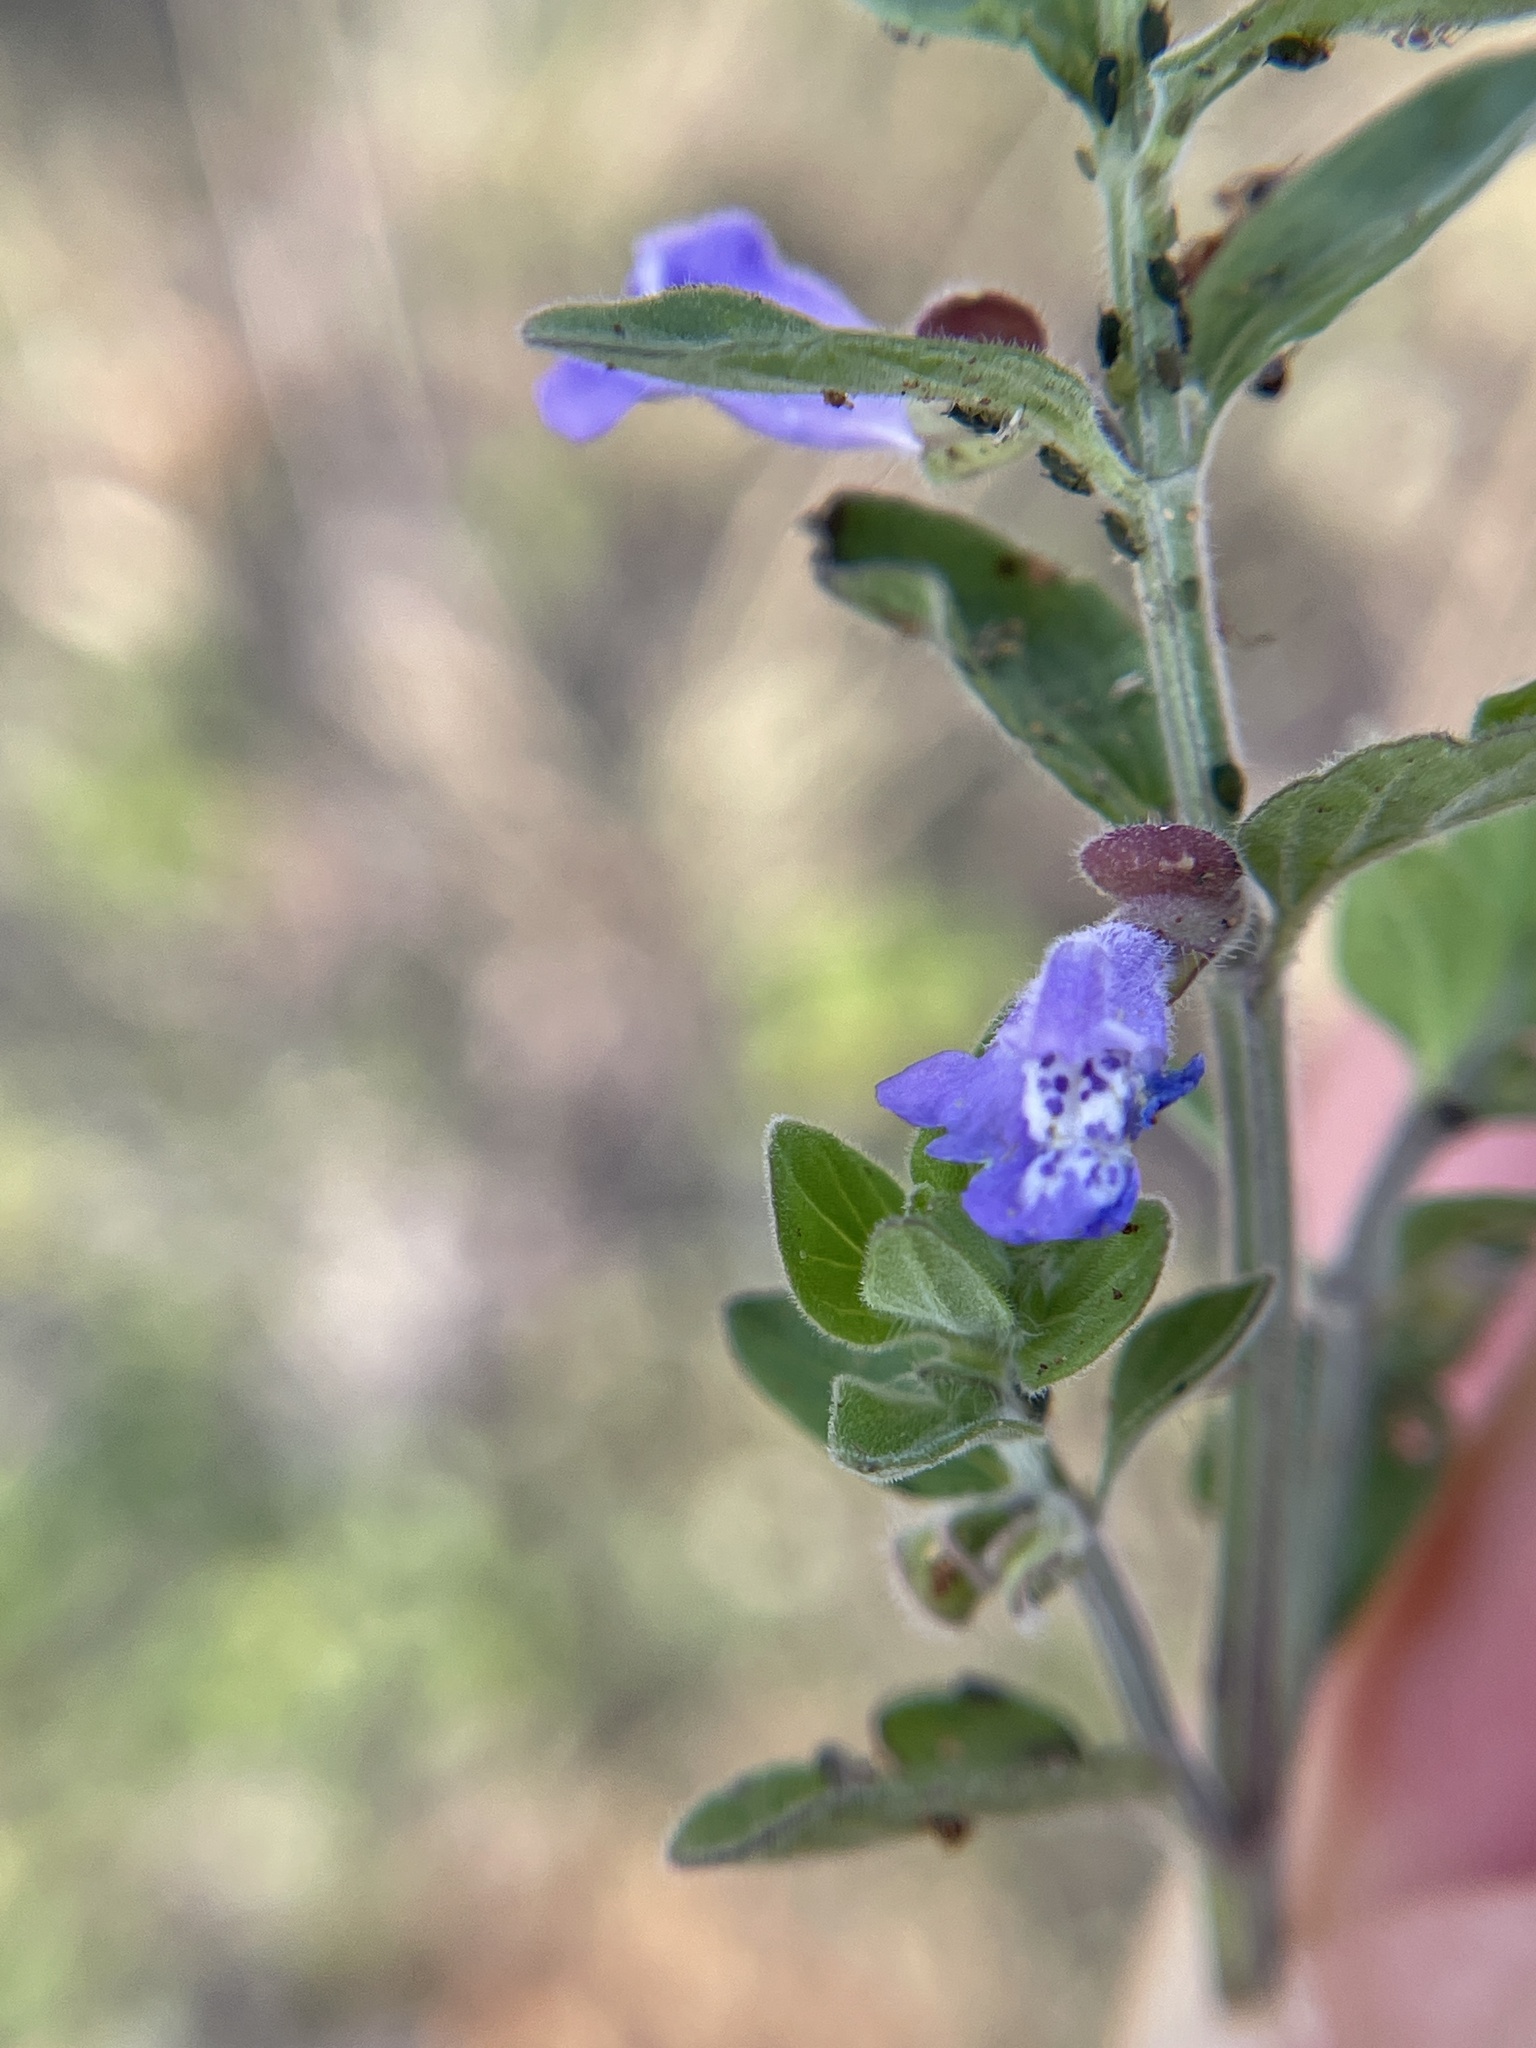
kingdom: Plantae
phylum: Tracheophyta
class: Magnoliopsida
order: Lamiales
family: Lamiaceae
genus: Scutellaria
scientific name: Scutellaria drummondii
